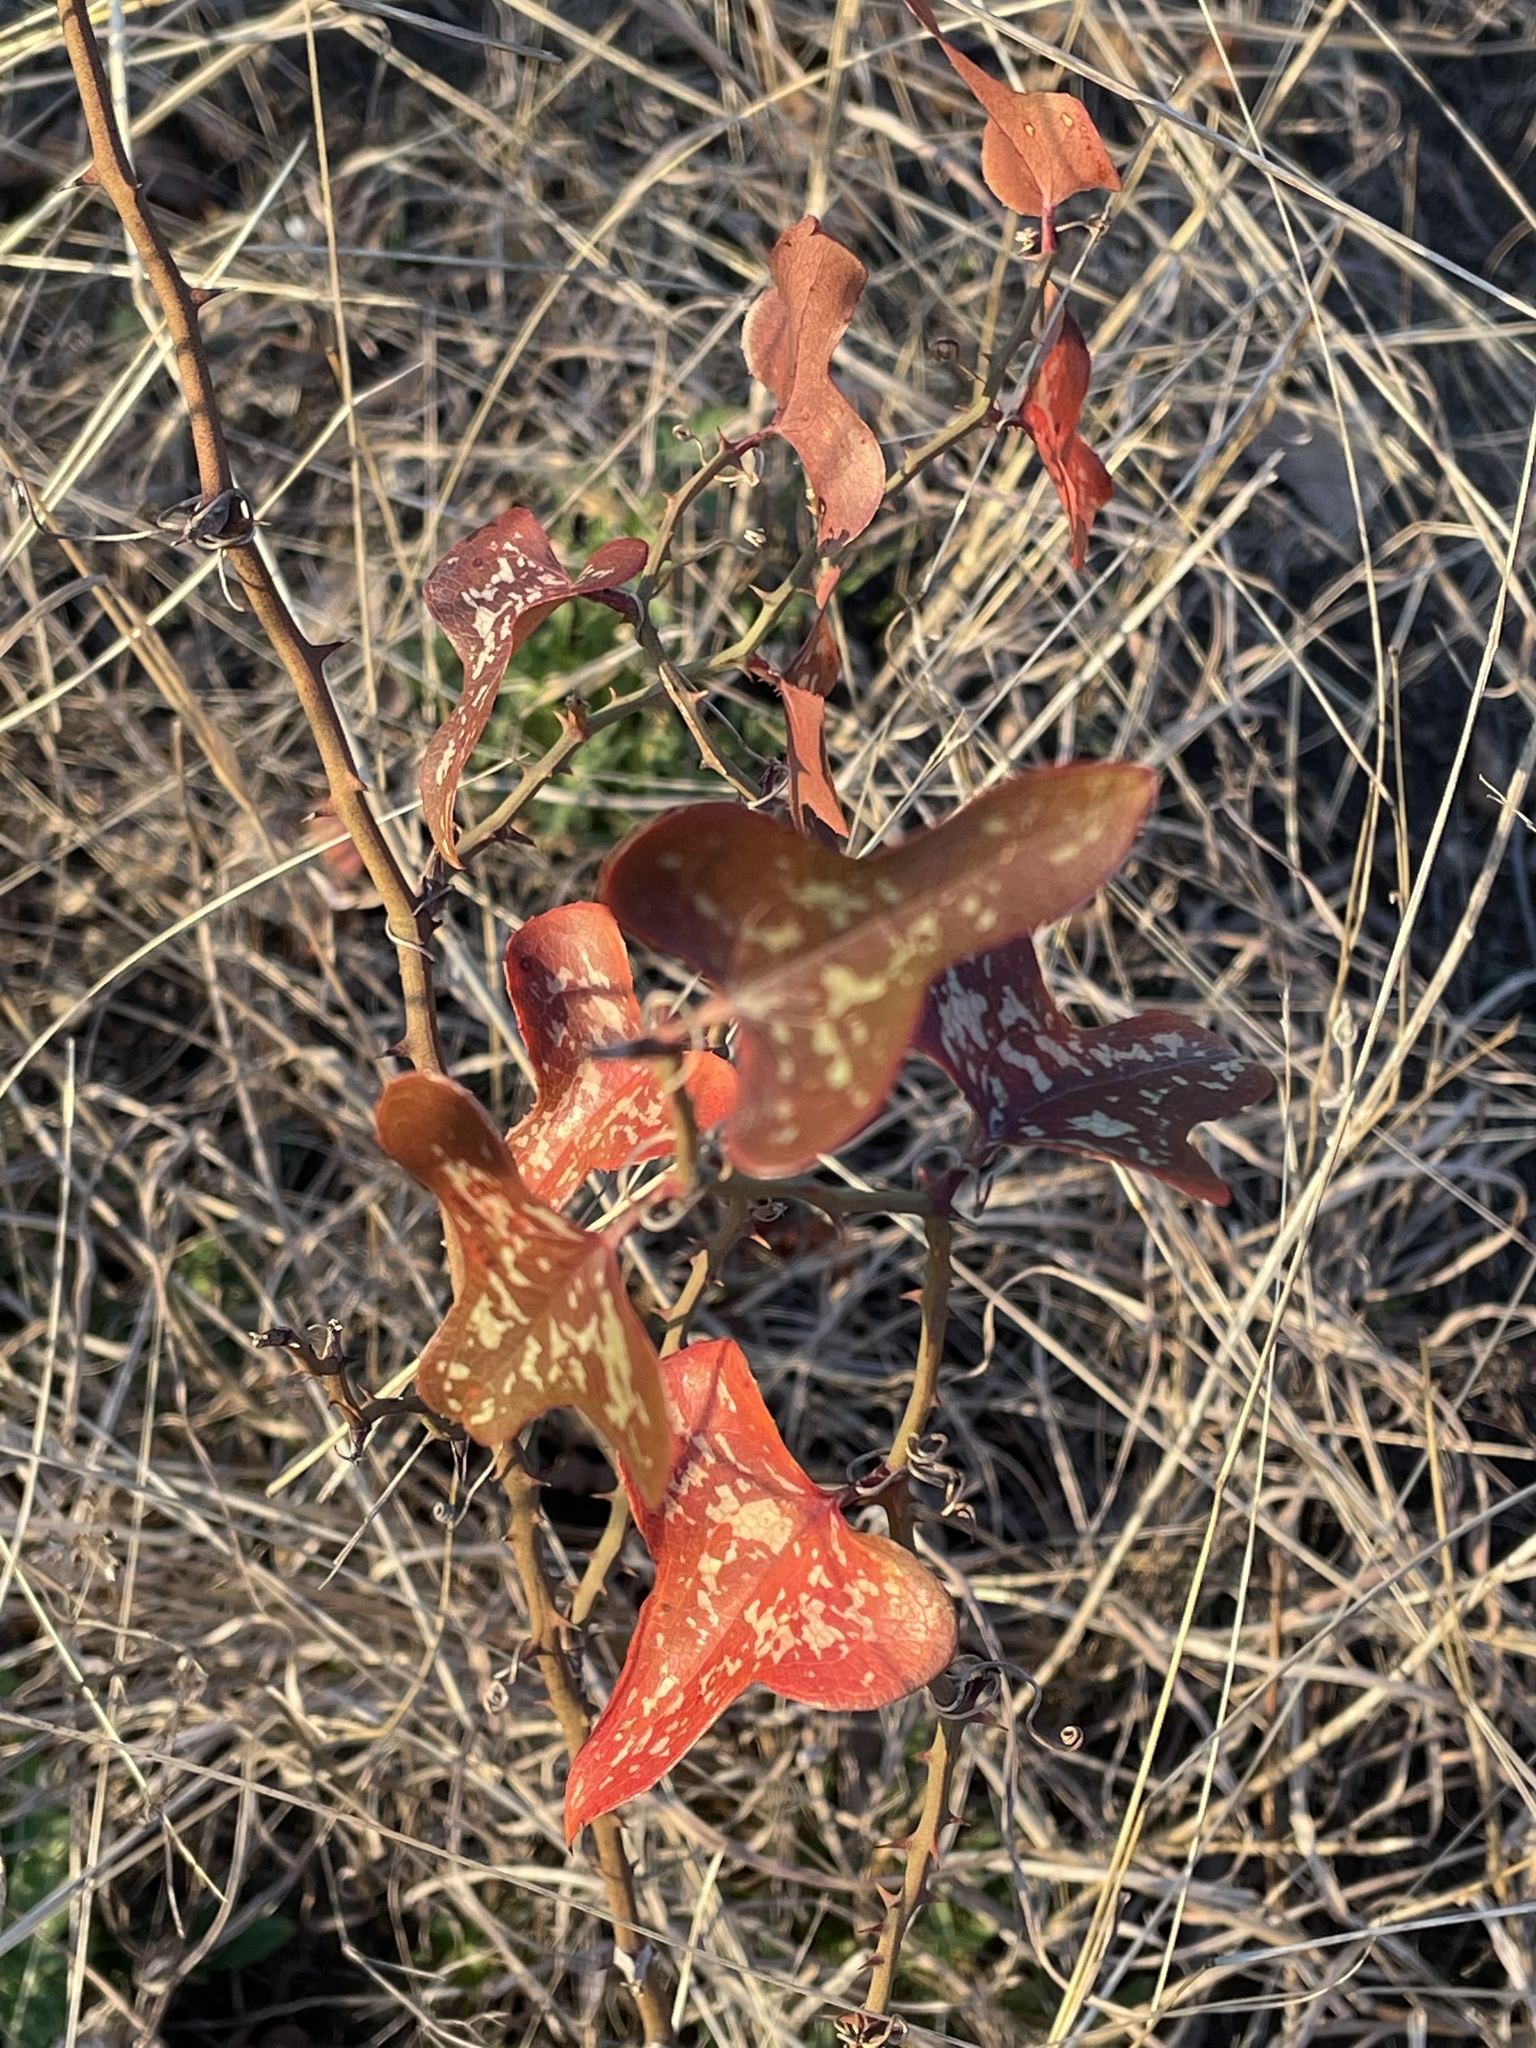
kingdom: Plantae
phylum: Tracheophyta
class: Liliopsida
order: Liliales
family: Smilacaceae
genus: Smilax
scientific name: Smilax bona-nox
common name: Catbrier
